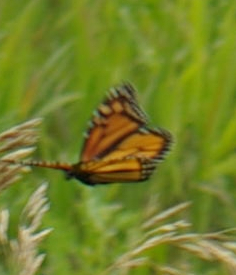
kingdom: Animalia
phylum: Arthropoda
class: Insecta
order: Lepidoptera
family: Nymphalidae
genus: Danaus
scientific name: Danaus plexippus
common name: Monarch
